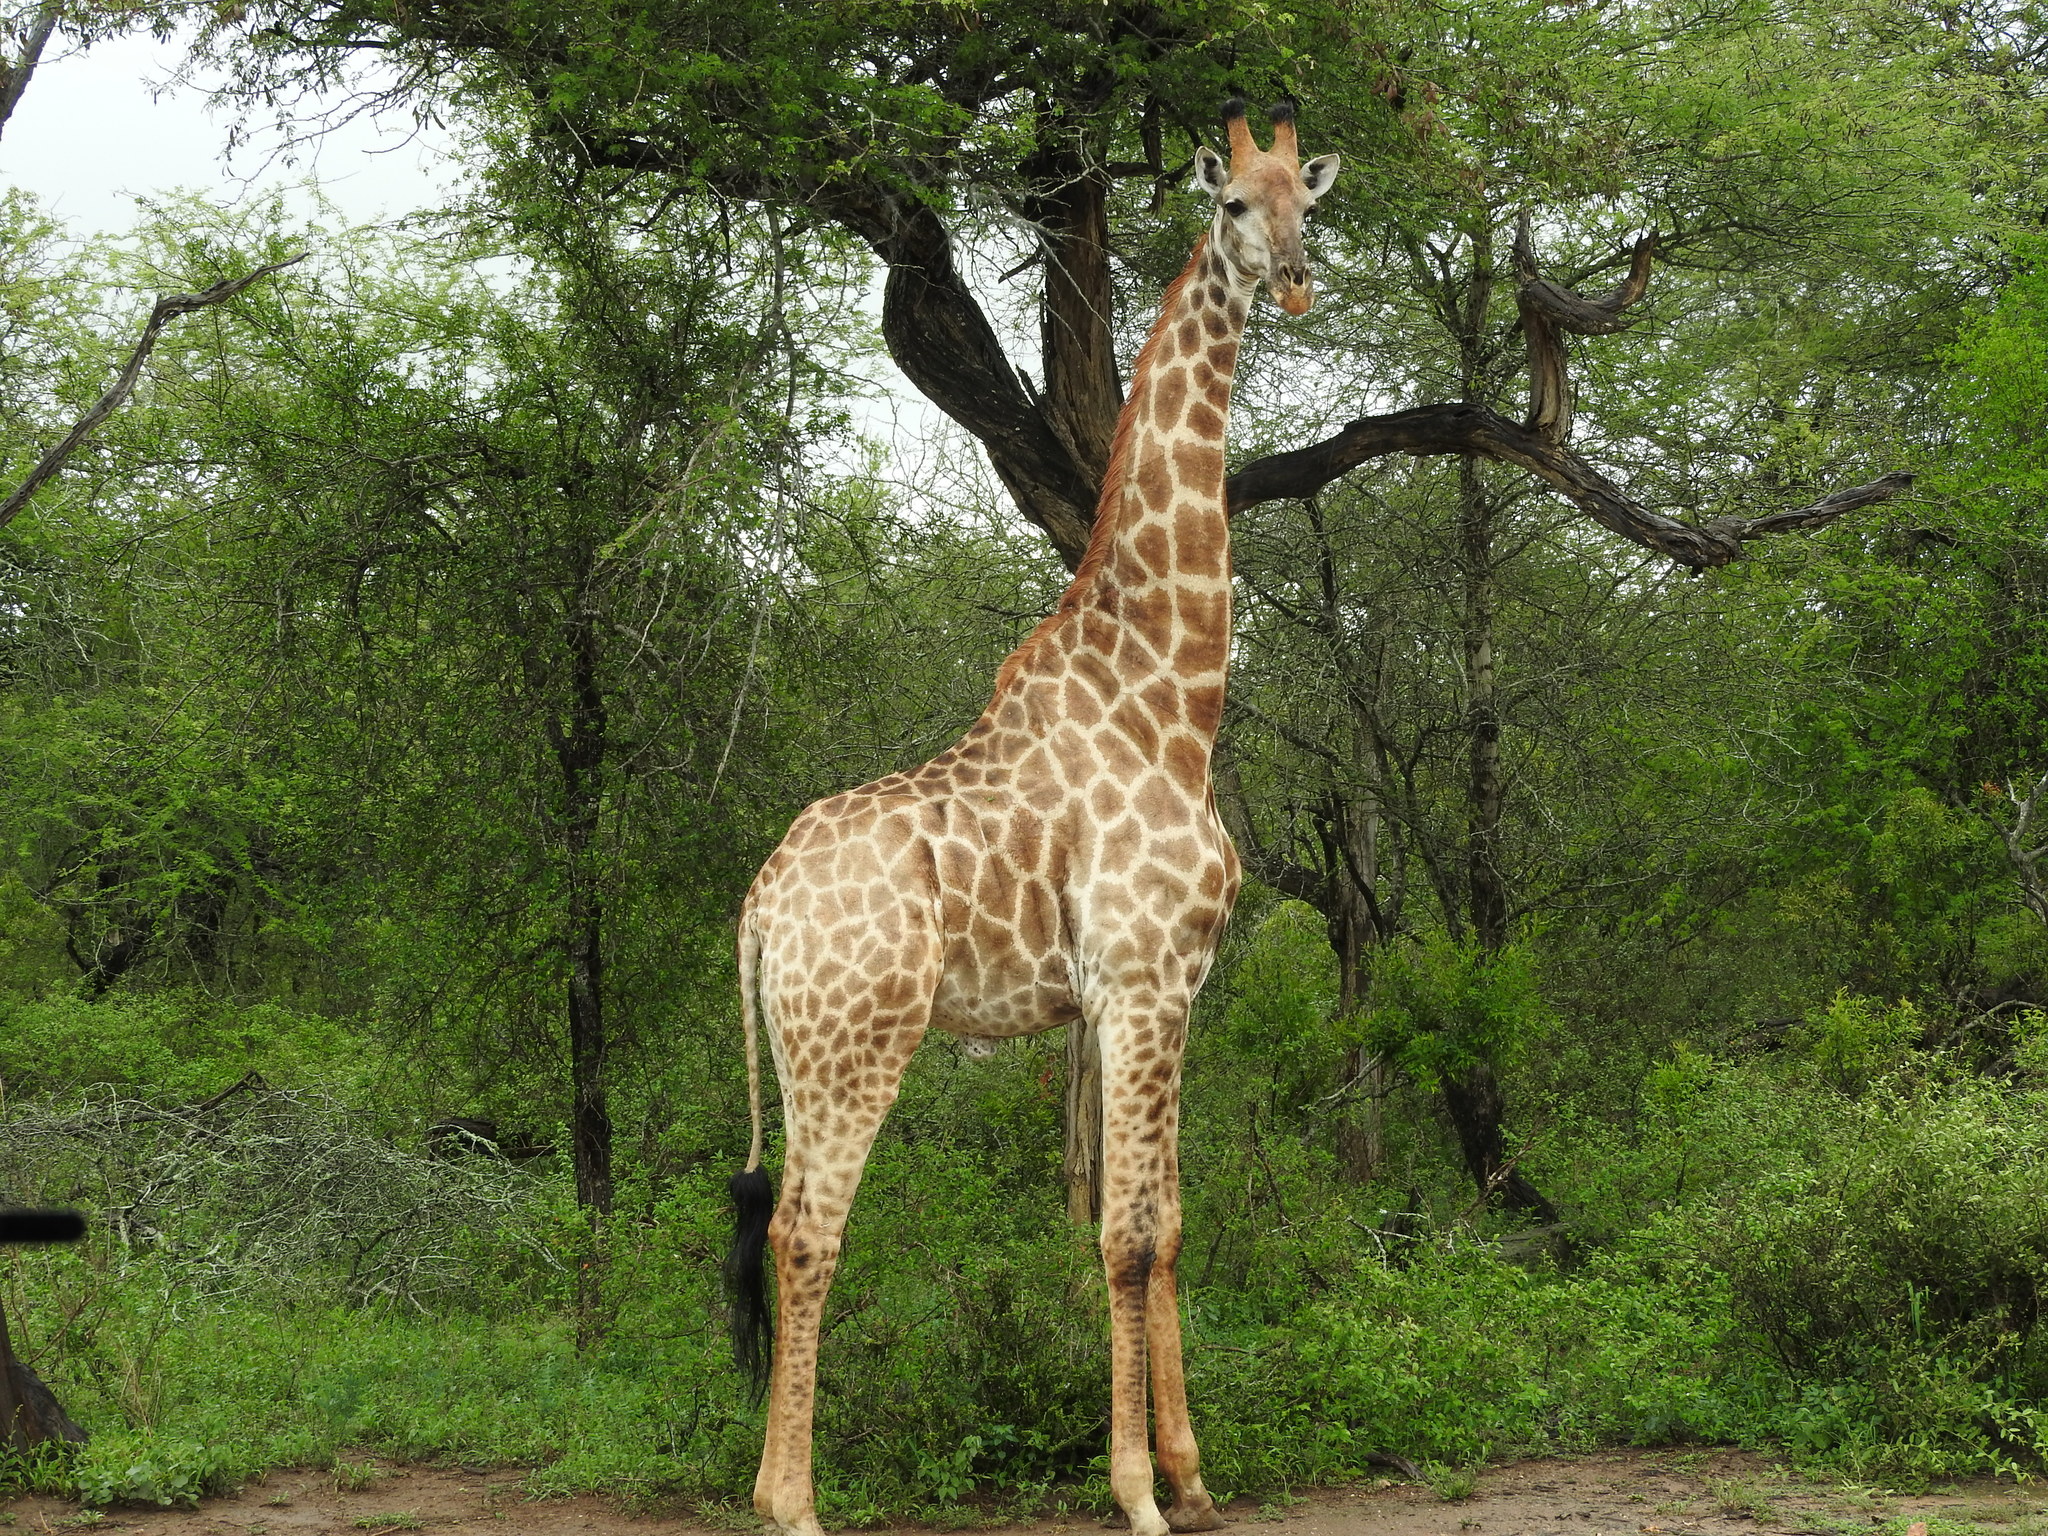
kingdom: Animalia
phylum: Chordata
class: Mammalia
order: Artiodactyla
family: Giraffidae
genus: Giraffa
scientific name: Giraffa giraffa
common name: Southern giraffe
